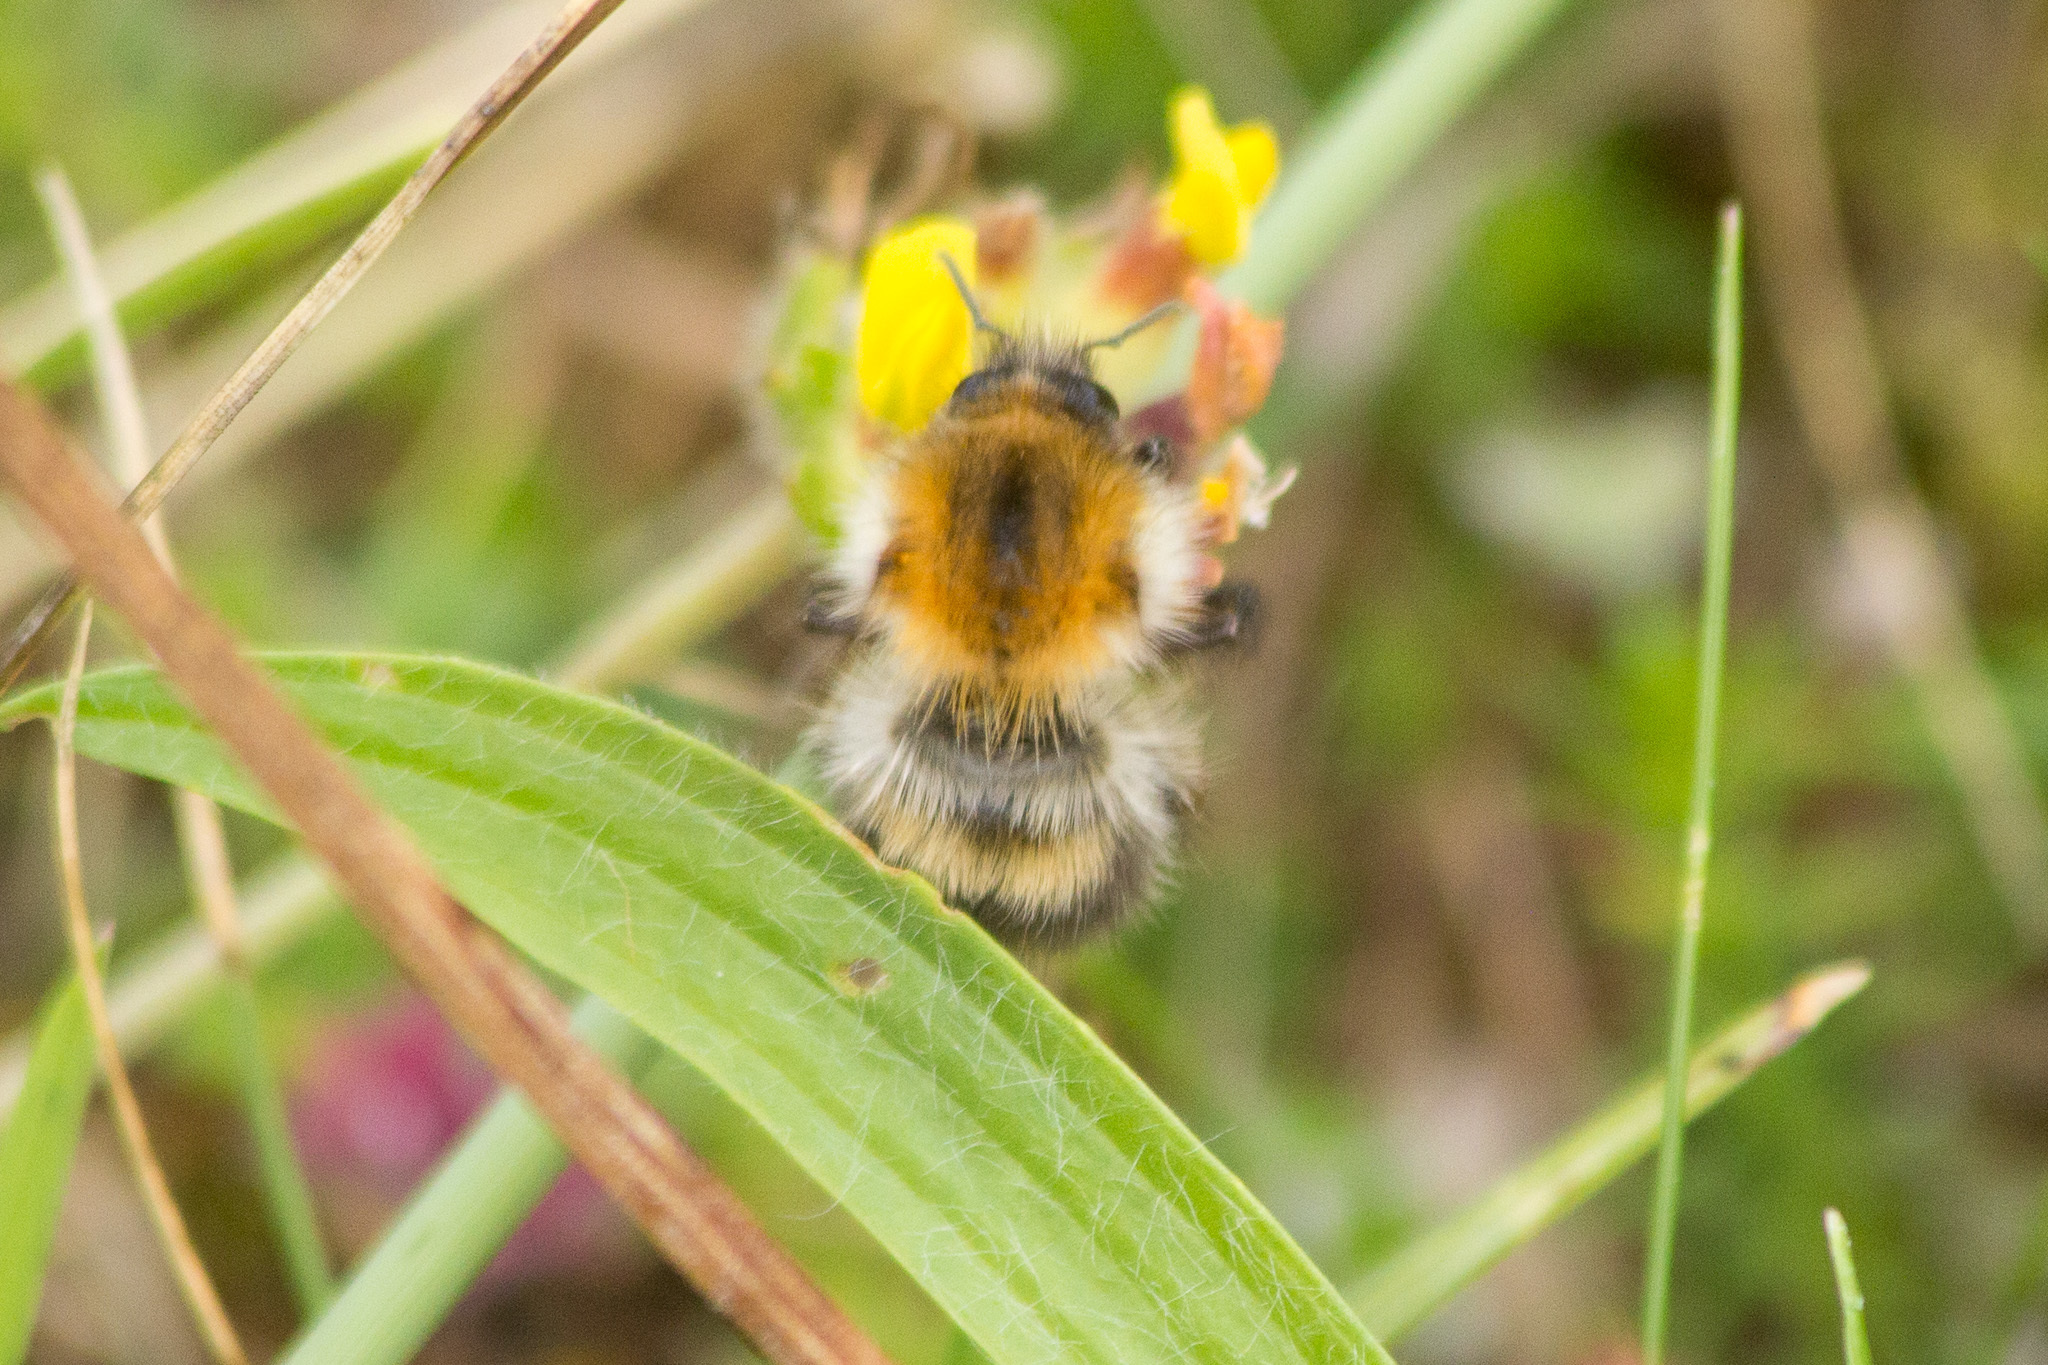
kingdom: Animalia
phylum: Arthropoda
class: Insecta
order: Hymenoptera
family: Apidae
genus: Bombus
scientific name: Bombus pascuorum
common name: Common carder bee
